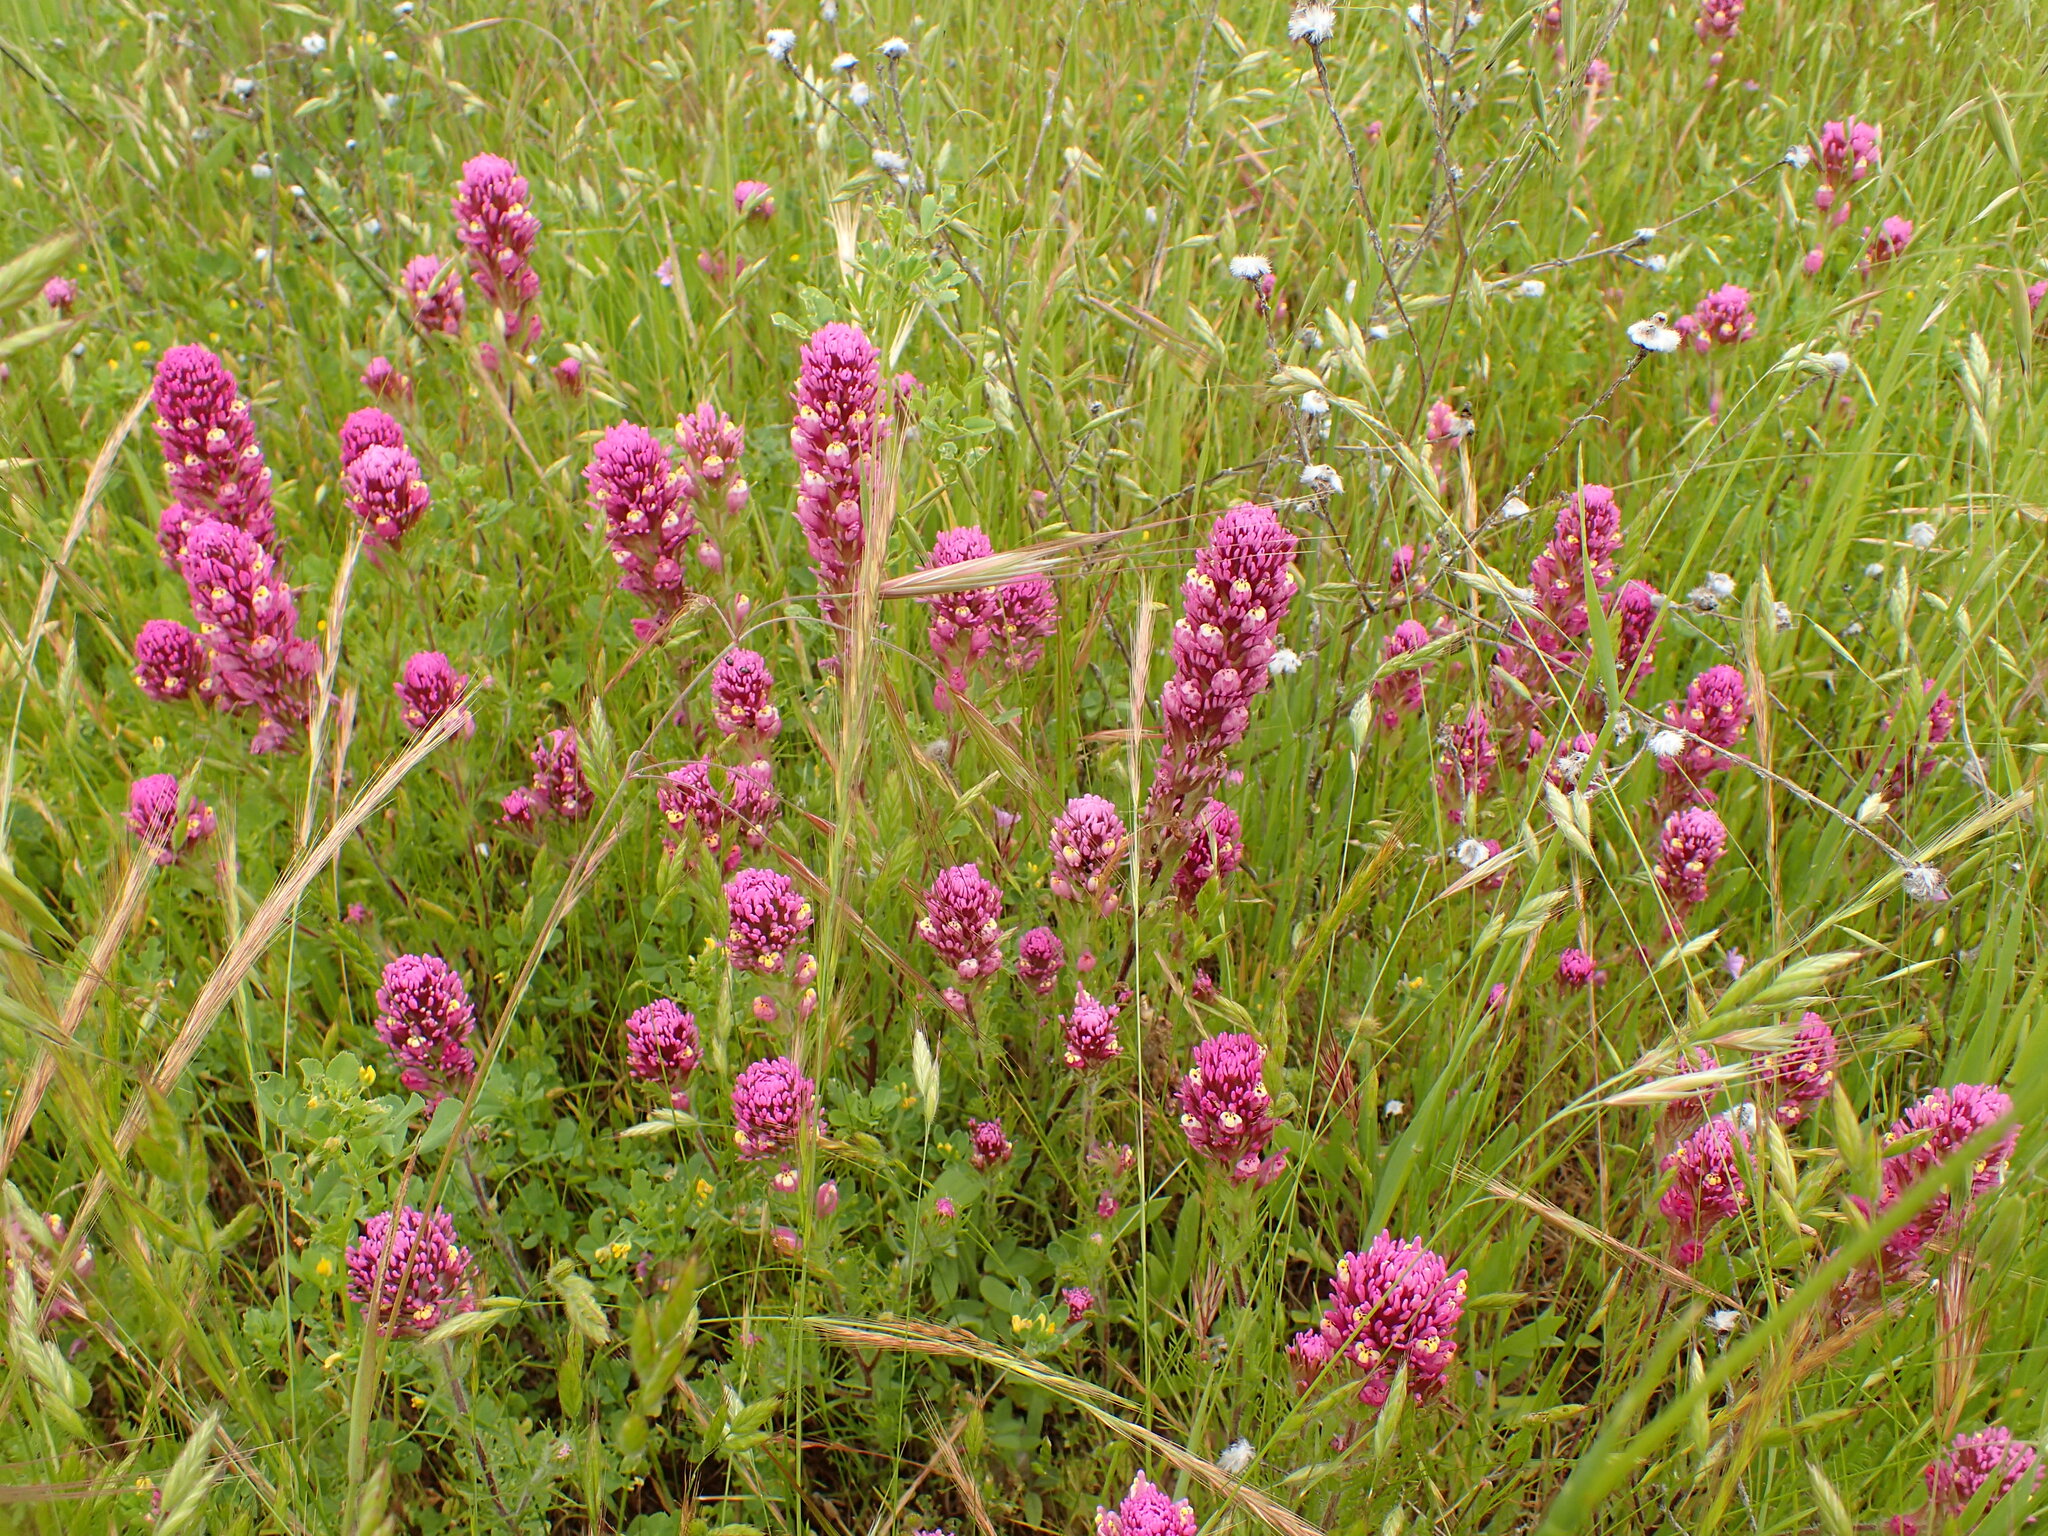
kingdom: Plantae
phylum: Tracheophyta
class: Magnoliopsida
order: Lamiales
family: Orobanchaceae
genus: Castilleja
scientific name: Castilleja exserta
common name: Purple owl-clover
